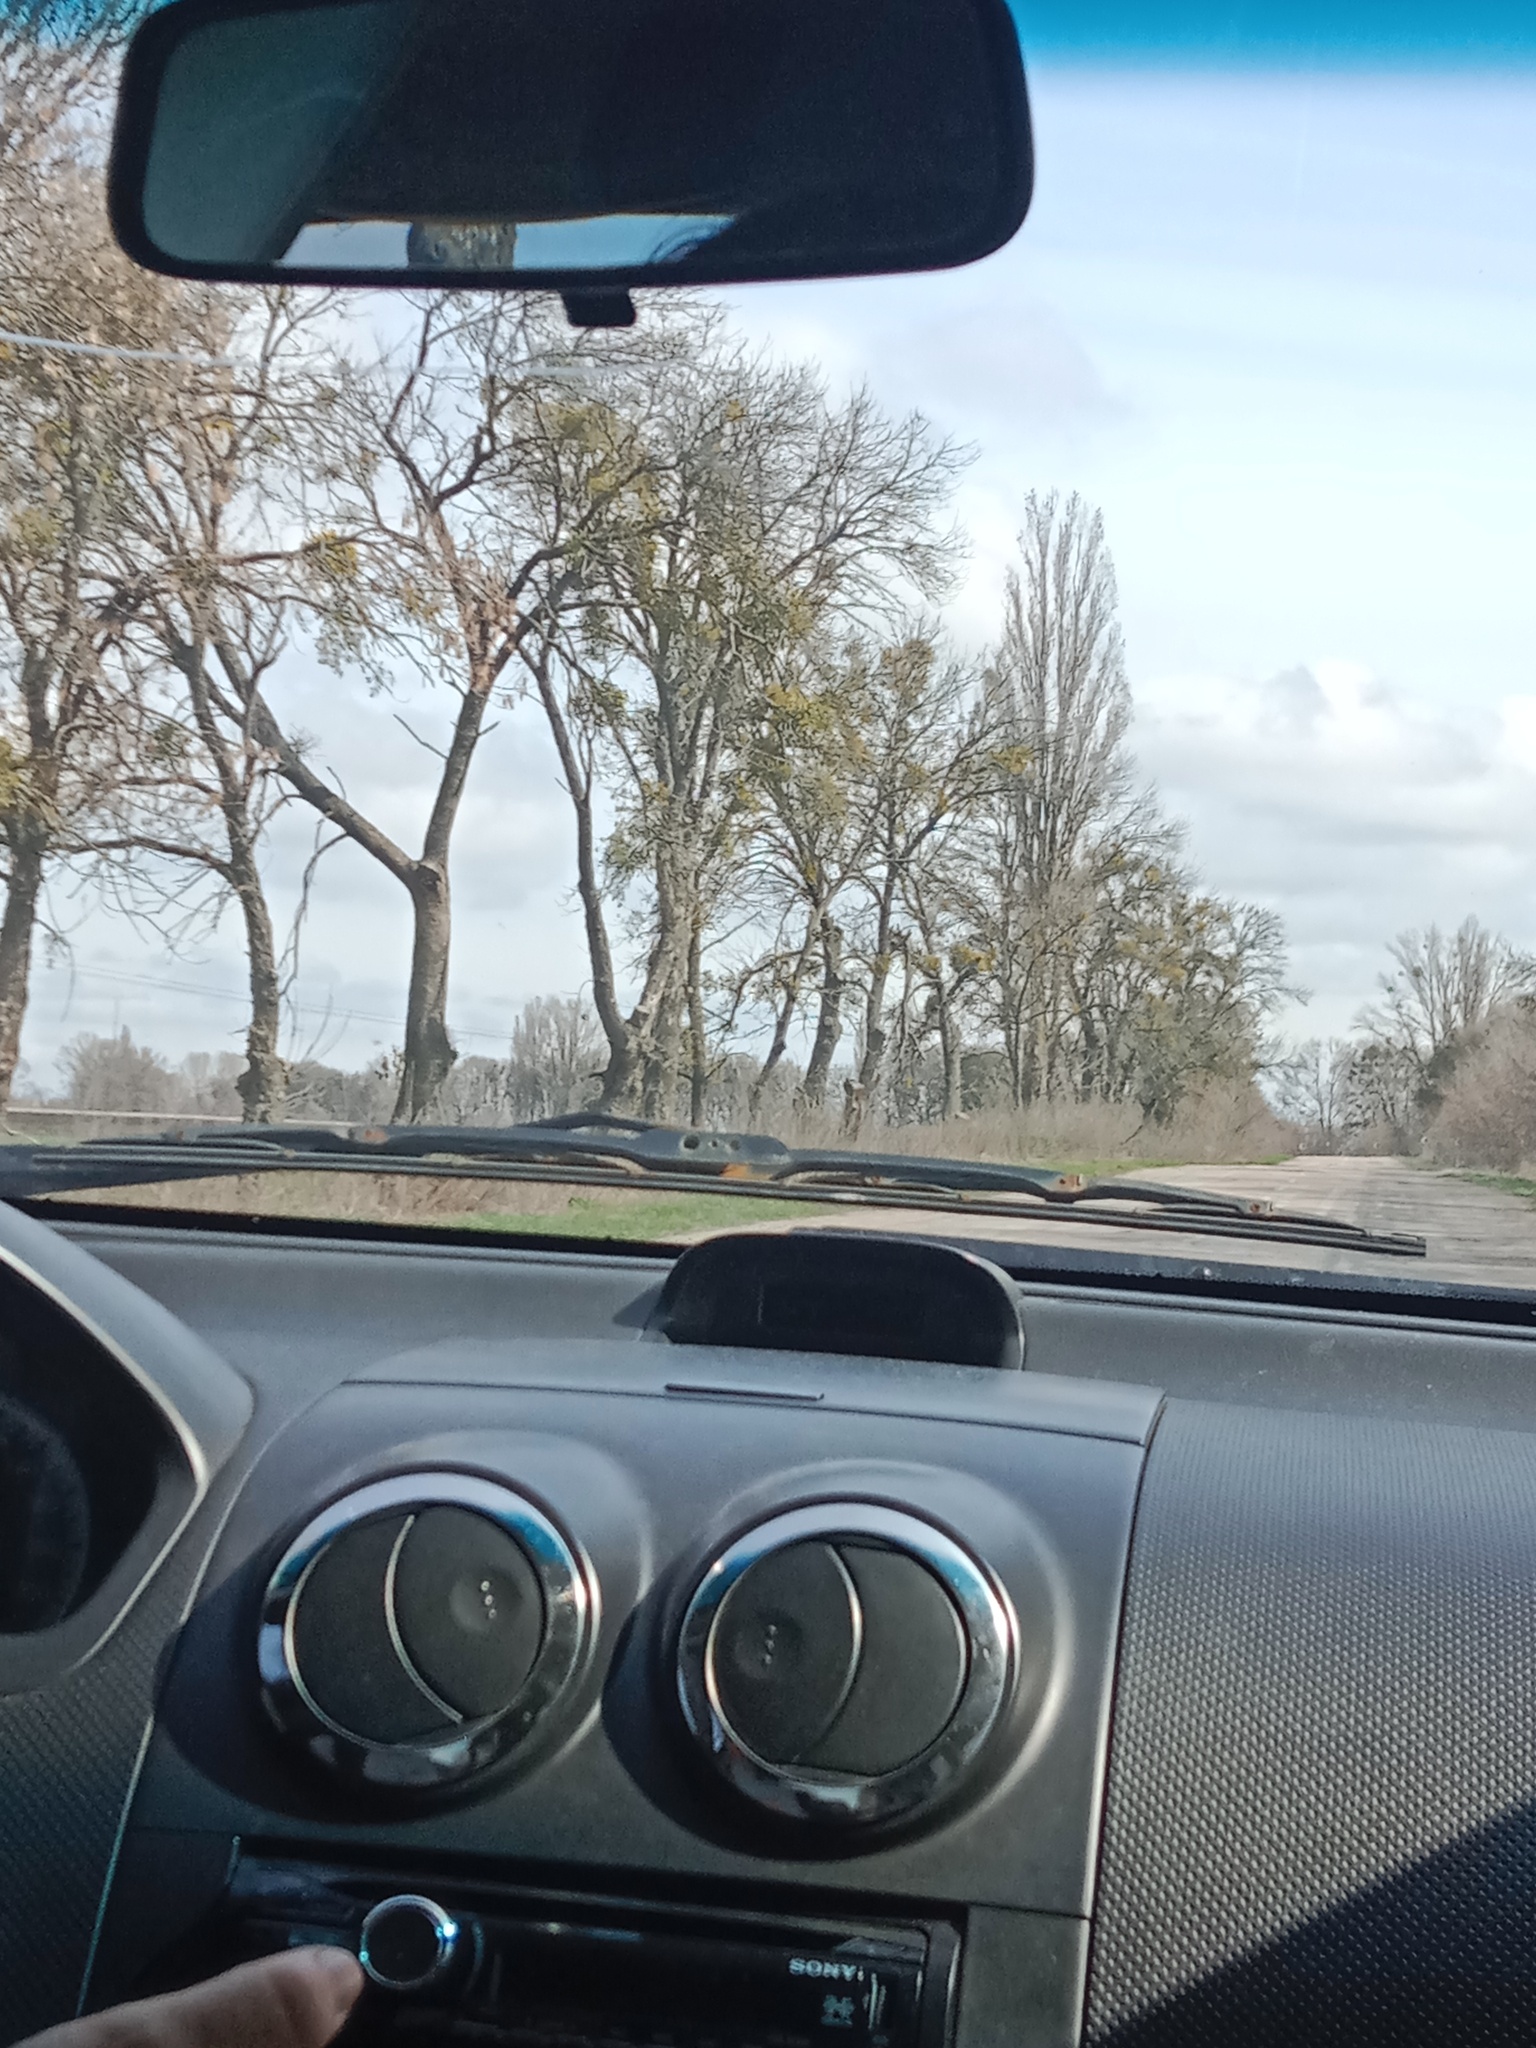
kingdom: Plantae
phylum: Tracheophyta
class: Magnoliopsida
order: Santalales
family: Viscaceae
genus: Viscum
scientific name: Viscum album
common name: Mistletoe
